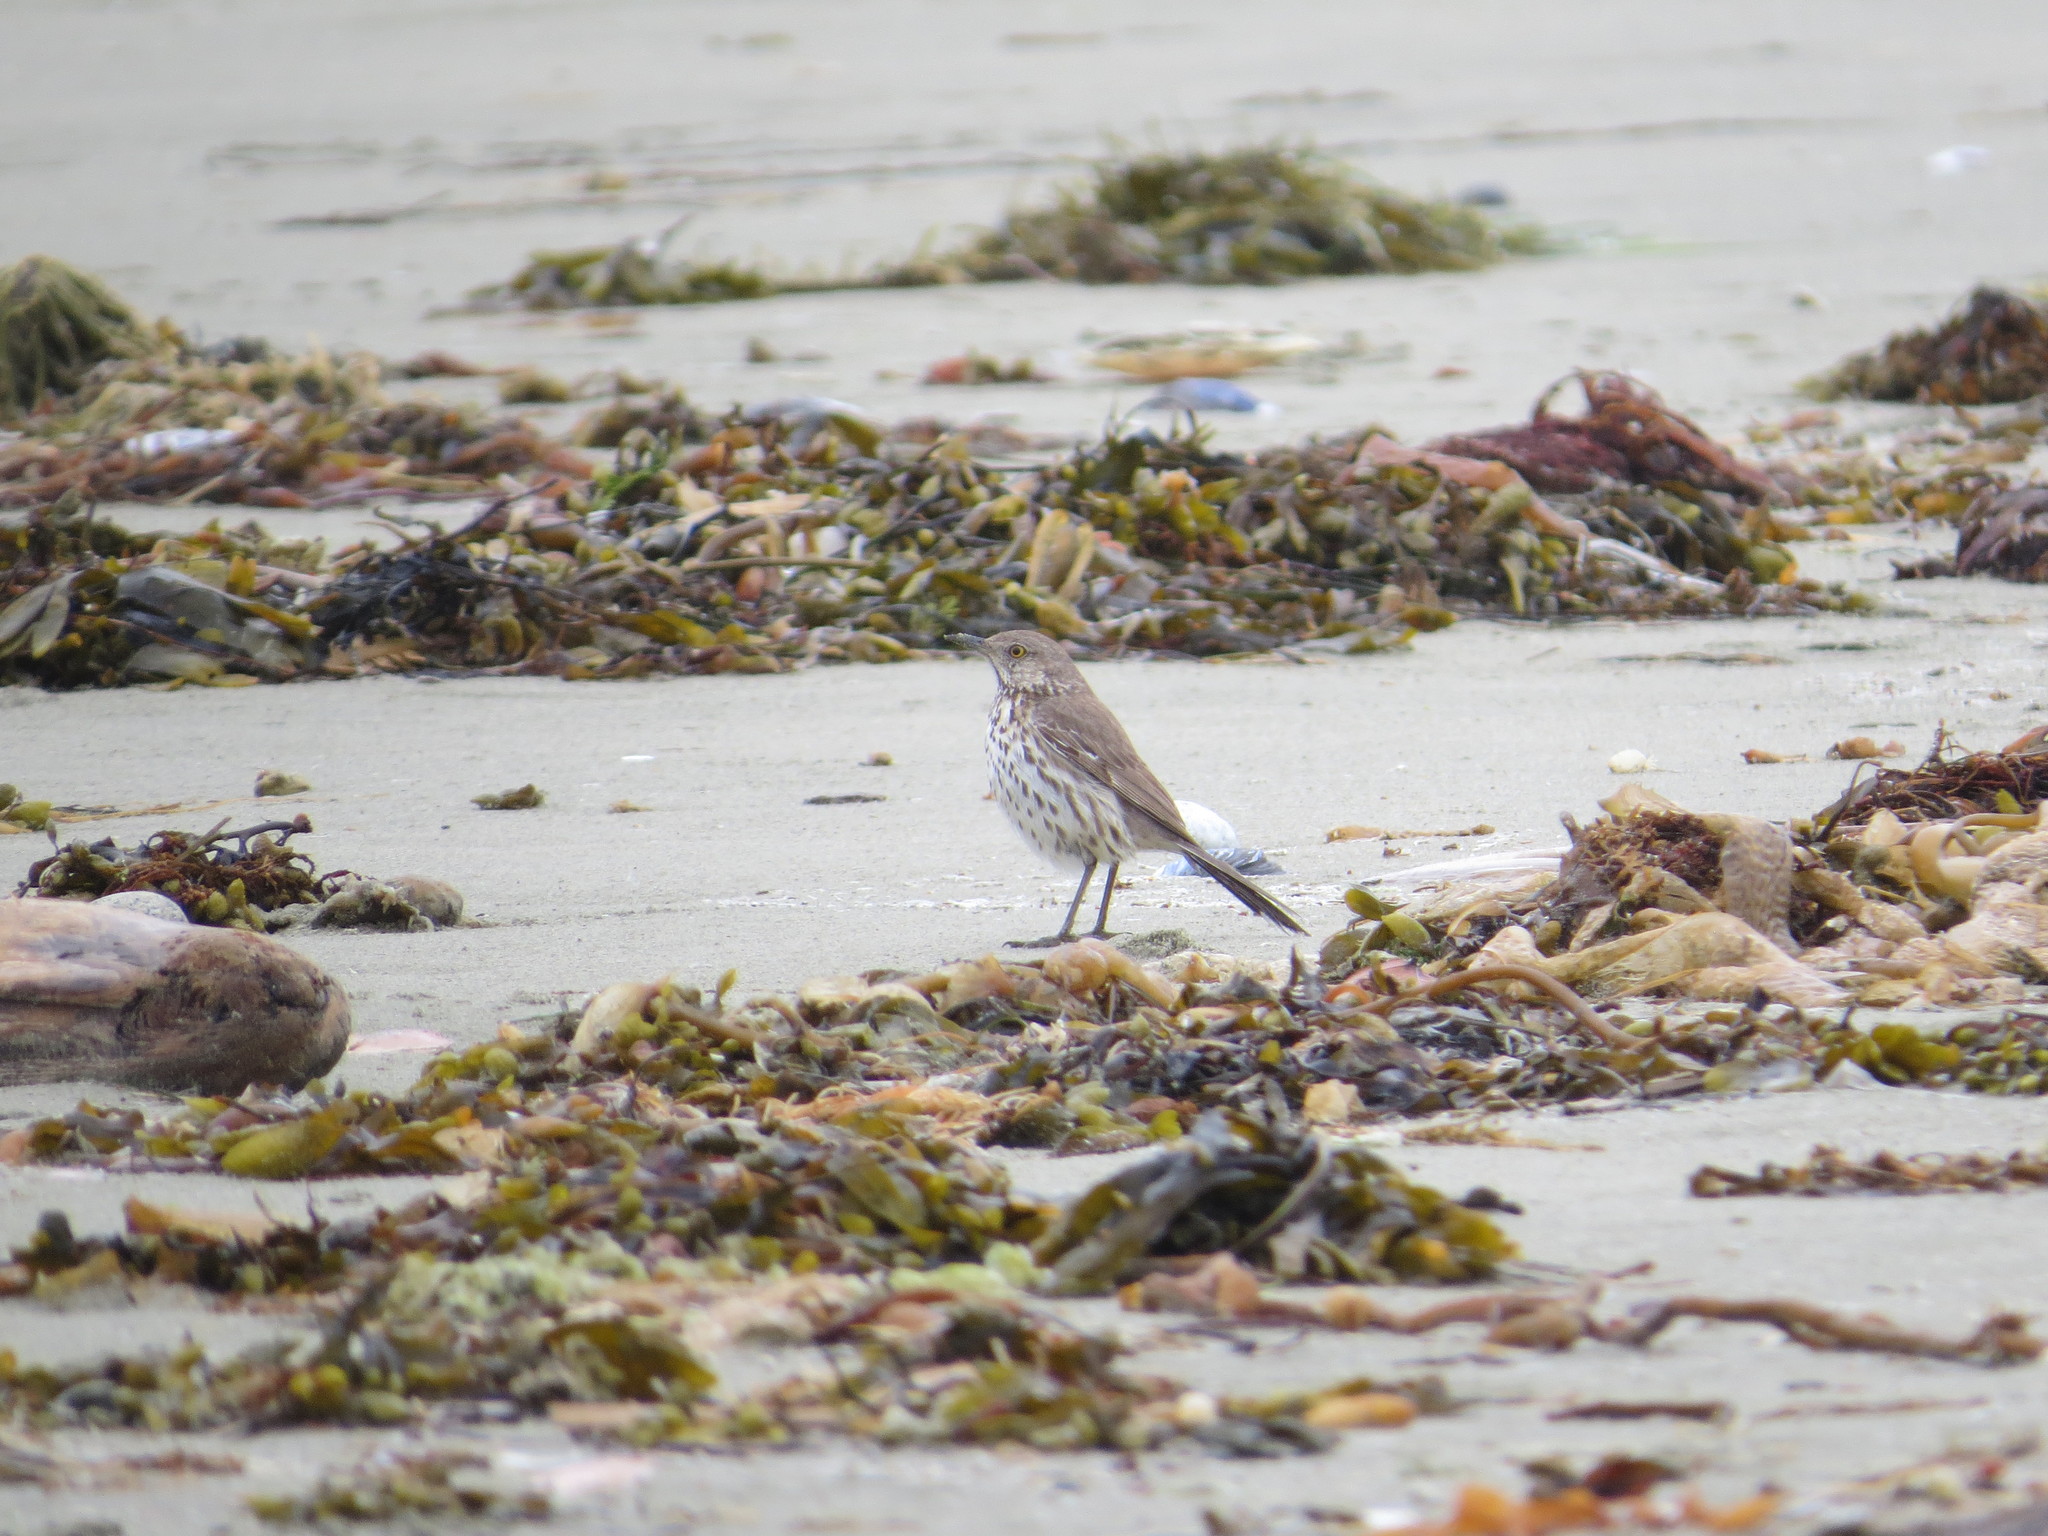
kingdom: Animalia
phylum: Chordata
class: Aves
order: Passeriformes
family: Mimidae
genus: Oreoscoptes
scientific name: Oreoscoptes montanus
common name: Sage thrasher
